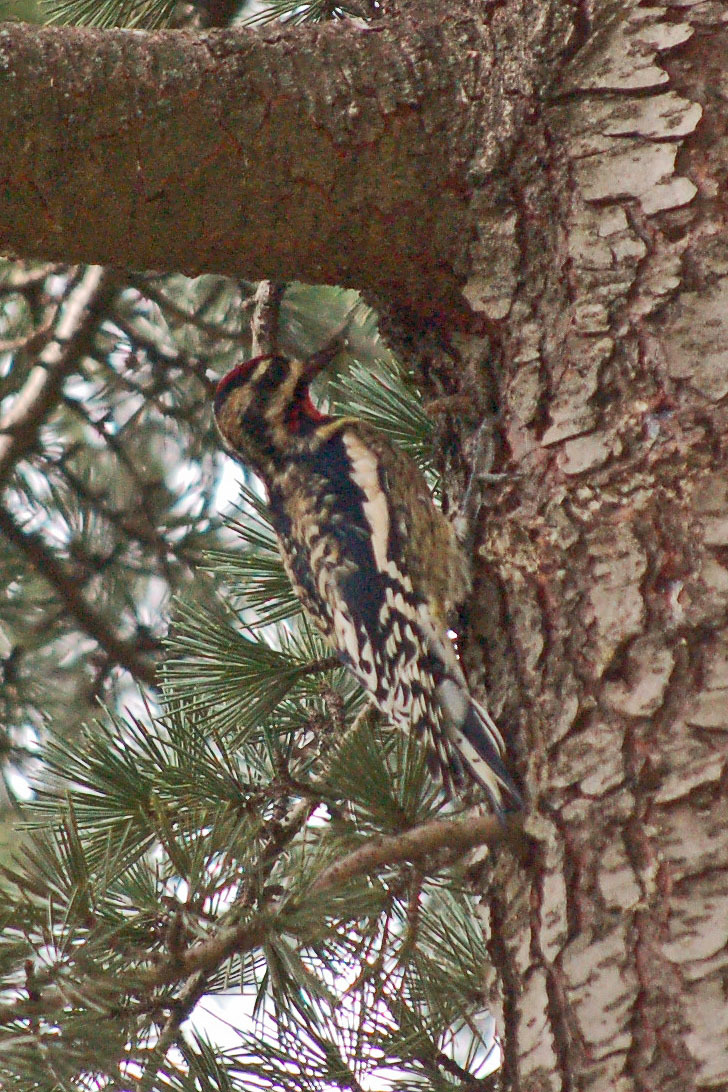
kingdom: Animalia
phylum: Chordata
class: Aves
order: Piciformes
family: Picidae
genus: Sphyrapicus
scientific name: Sphyrapicus varius
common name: Yellow-bellied sapsucker
